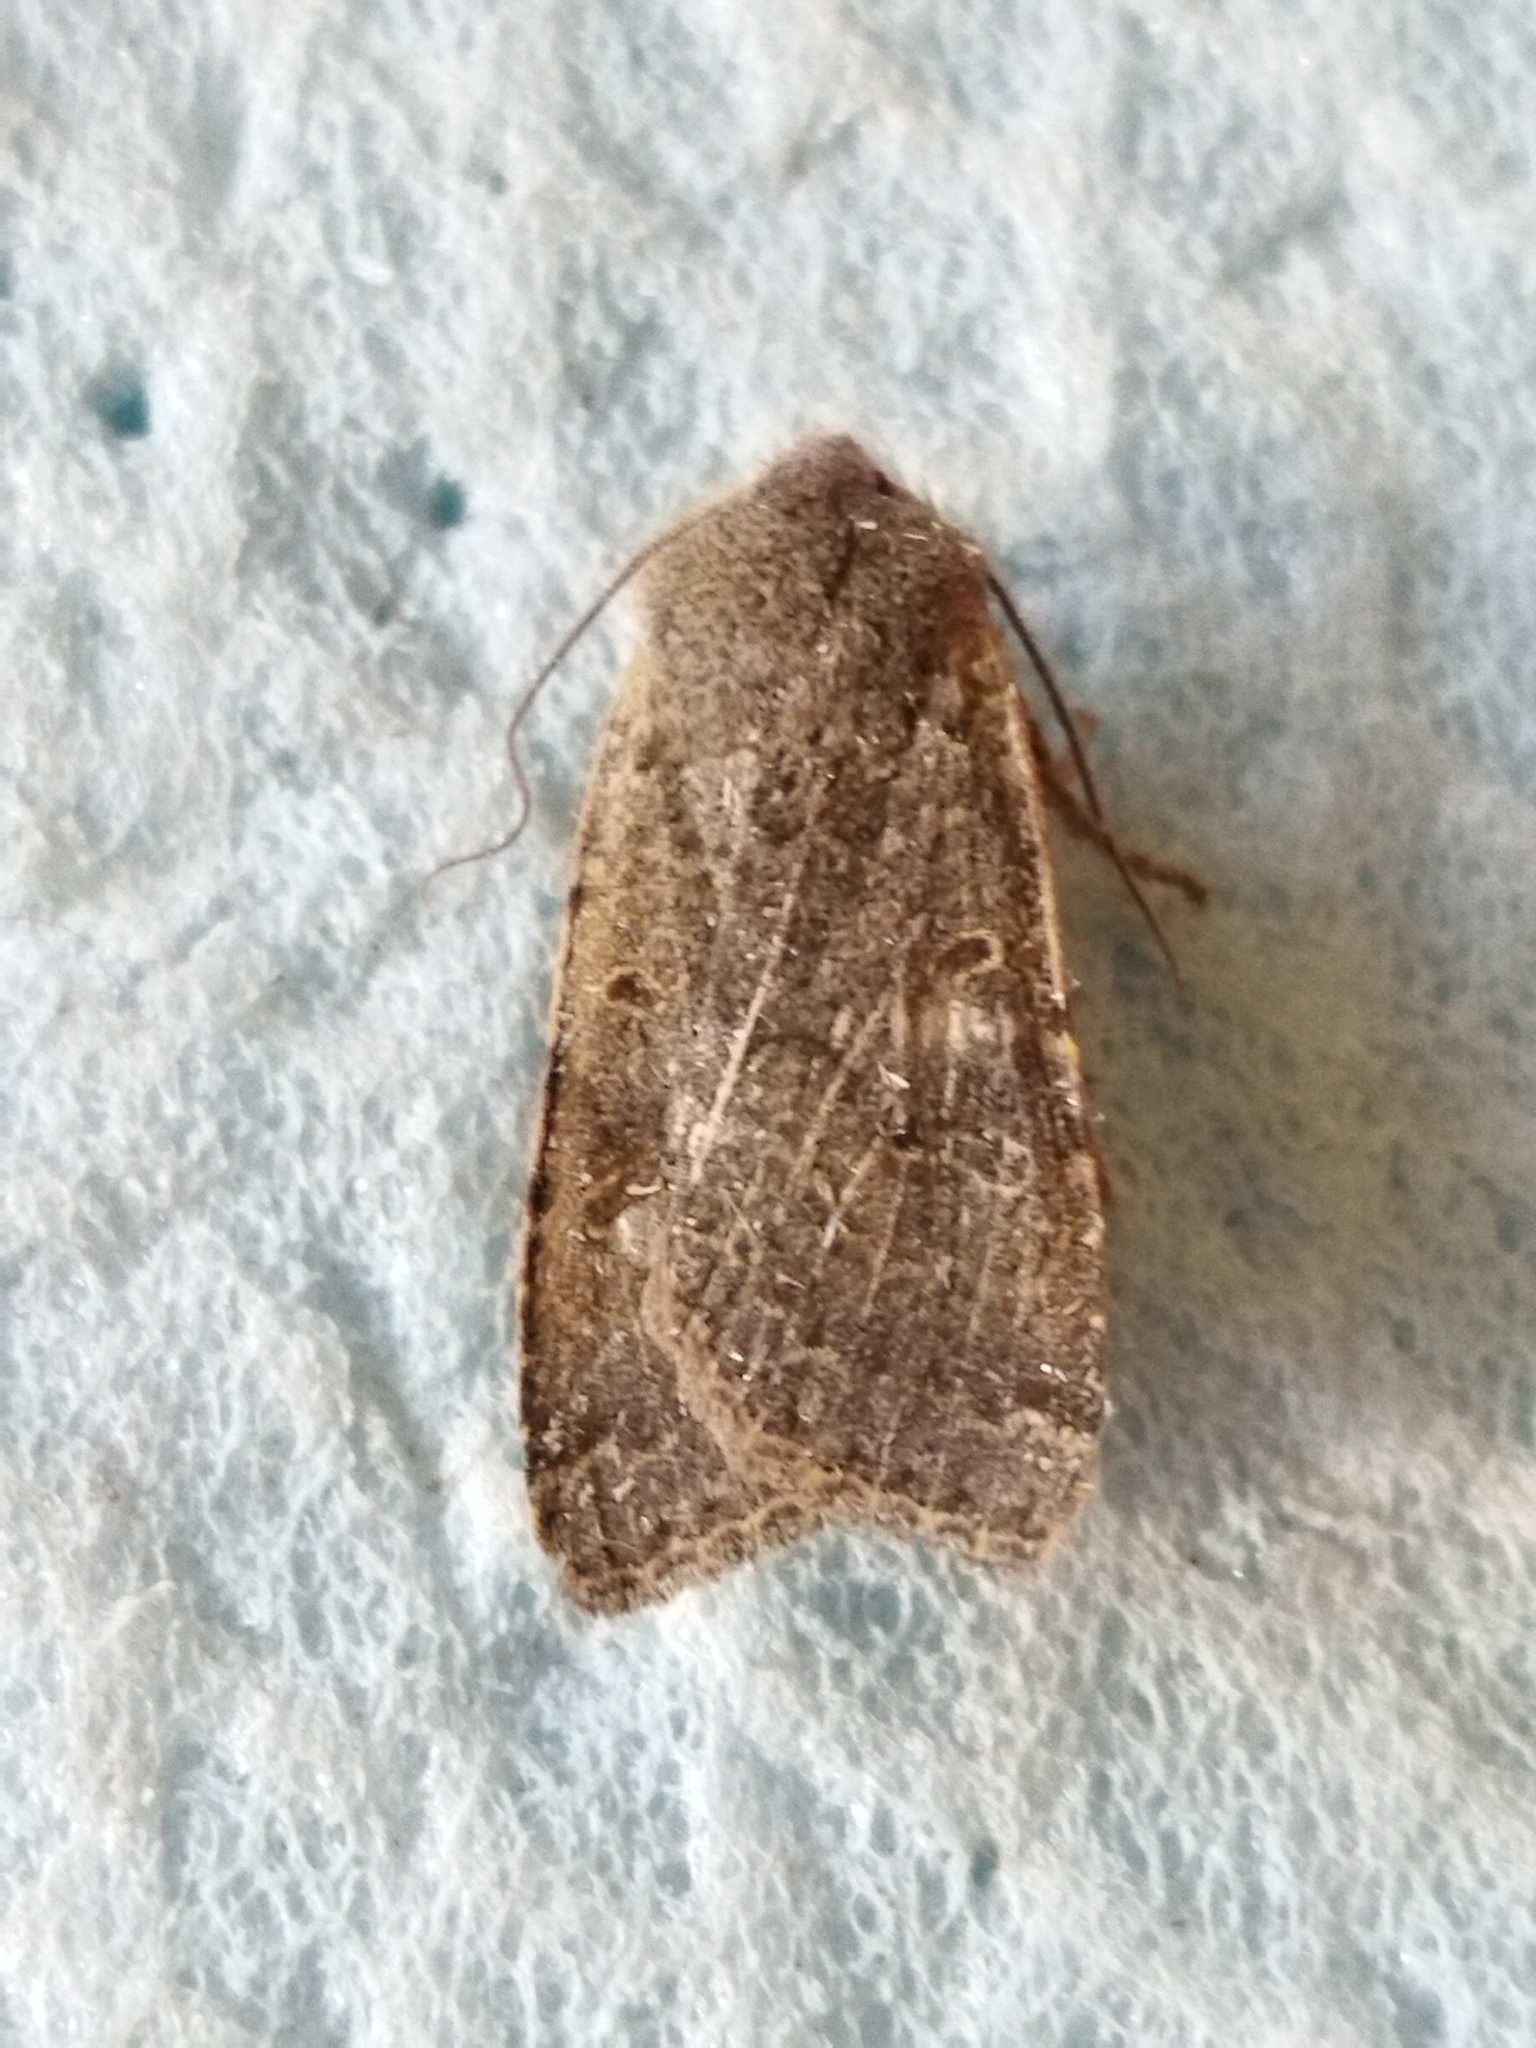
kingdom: Animalia
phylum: Arthropoda
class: Insecta
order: Lepidoptera
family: Noctuidae
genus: Agrochola
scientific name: Agrochola lychnidis
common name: Beaded chestnut
